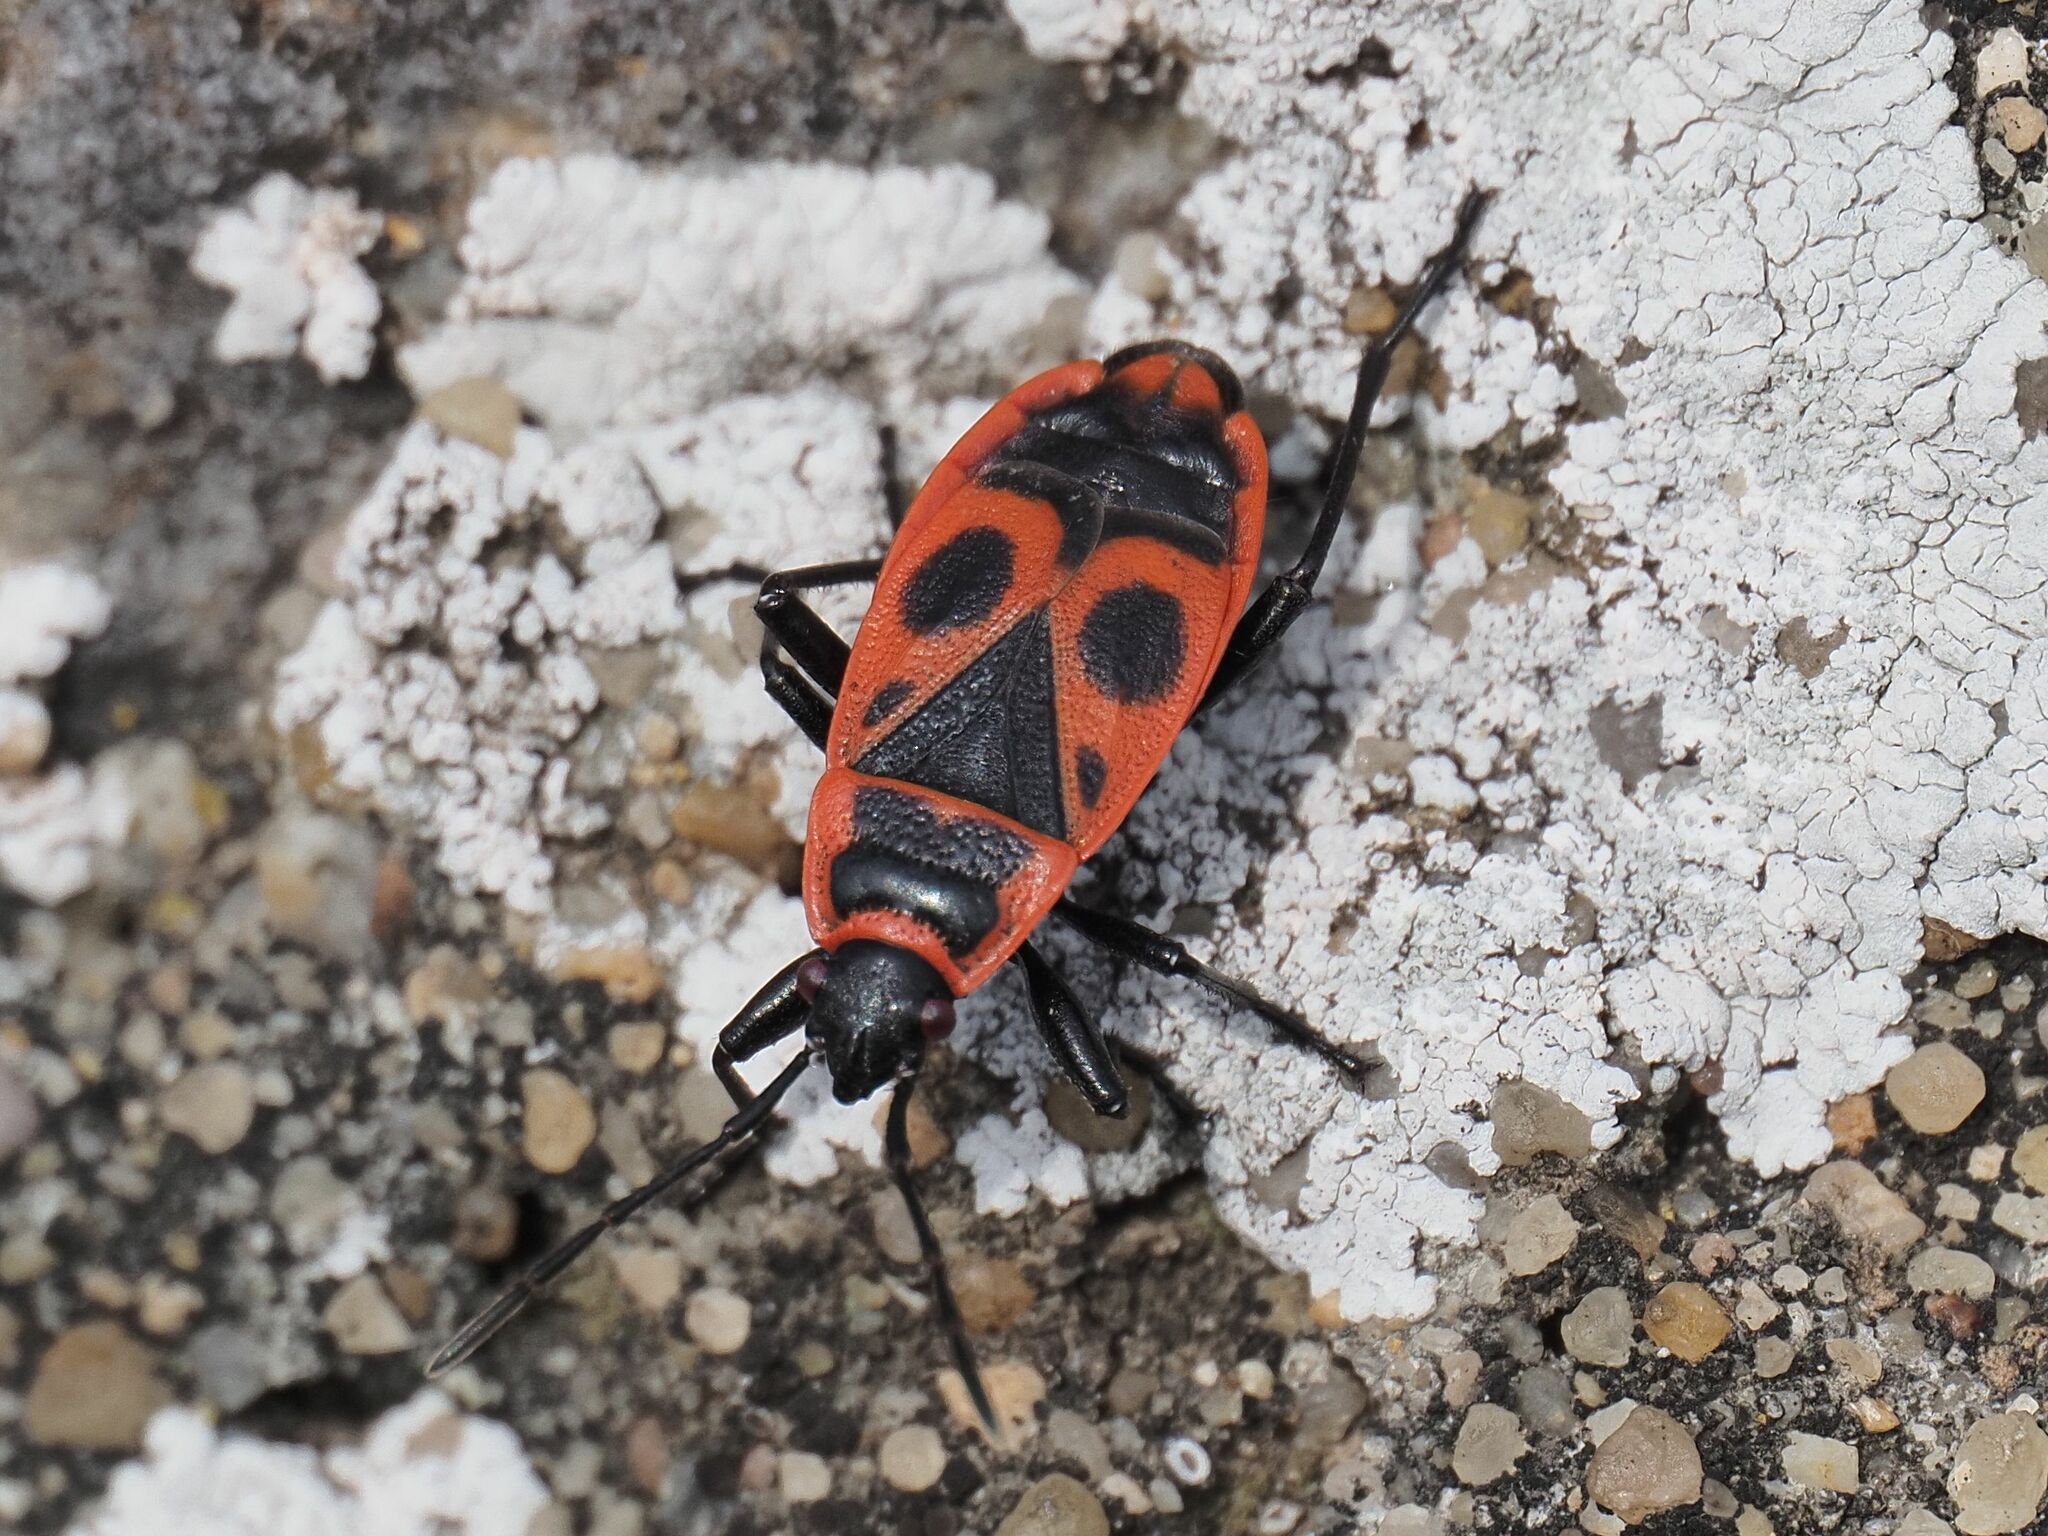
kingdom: Animalia
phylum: Arthropoda
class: Insecta
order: Hemiptera
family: Pyrrhocoridae
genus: Pyrrhocoris
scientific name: Pyrrhocoris apterus
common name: Firebug
